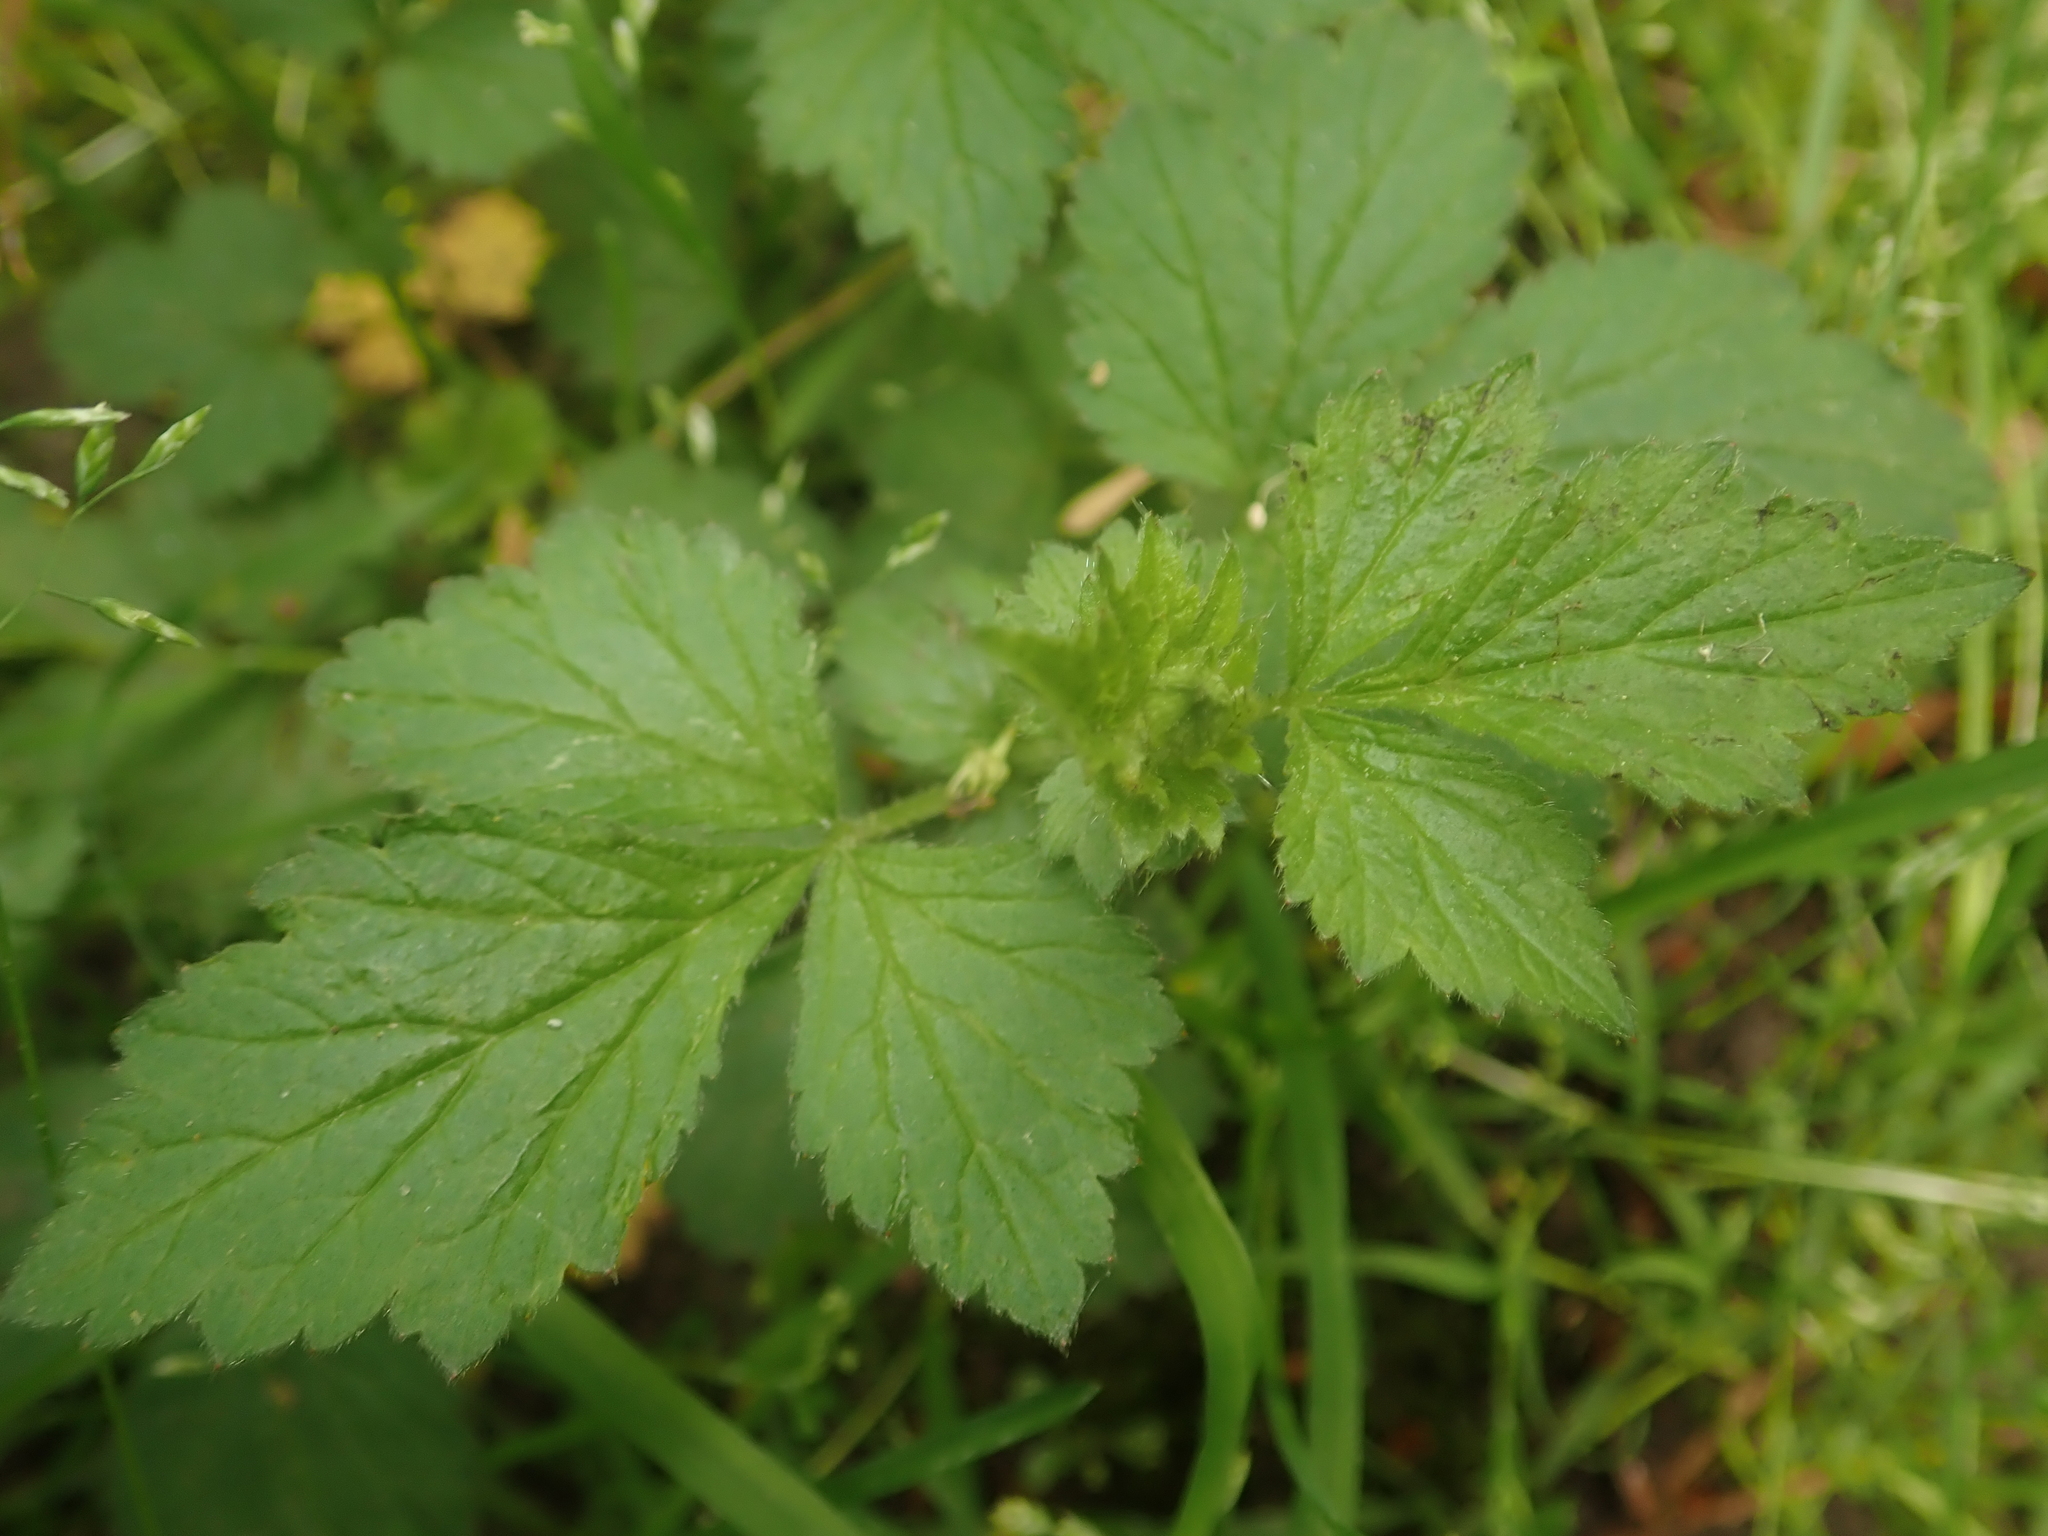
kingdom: Plantae
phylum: Tracheophyta
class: Magnoliopsida
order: Rosales
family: Rosaceae
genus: Geum
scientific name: Geum urbanum
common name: Wood avens
